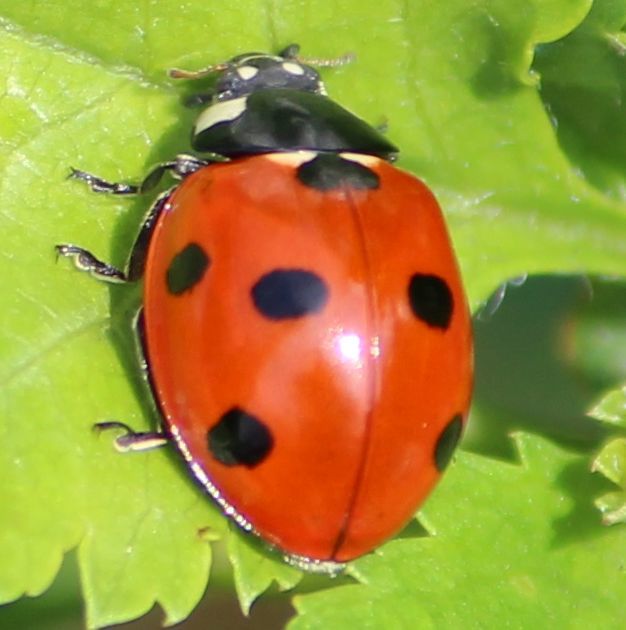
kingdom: Animalia
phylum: Arthropoda
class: Insecta
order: Coleoptera
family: Coccinellidae
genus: Coccinella
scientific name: Coccinella septempunctata
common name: Sevenspotted lady beetle
